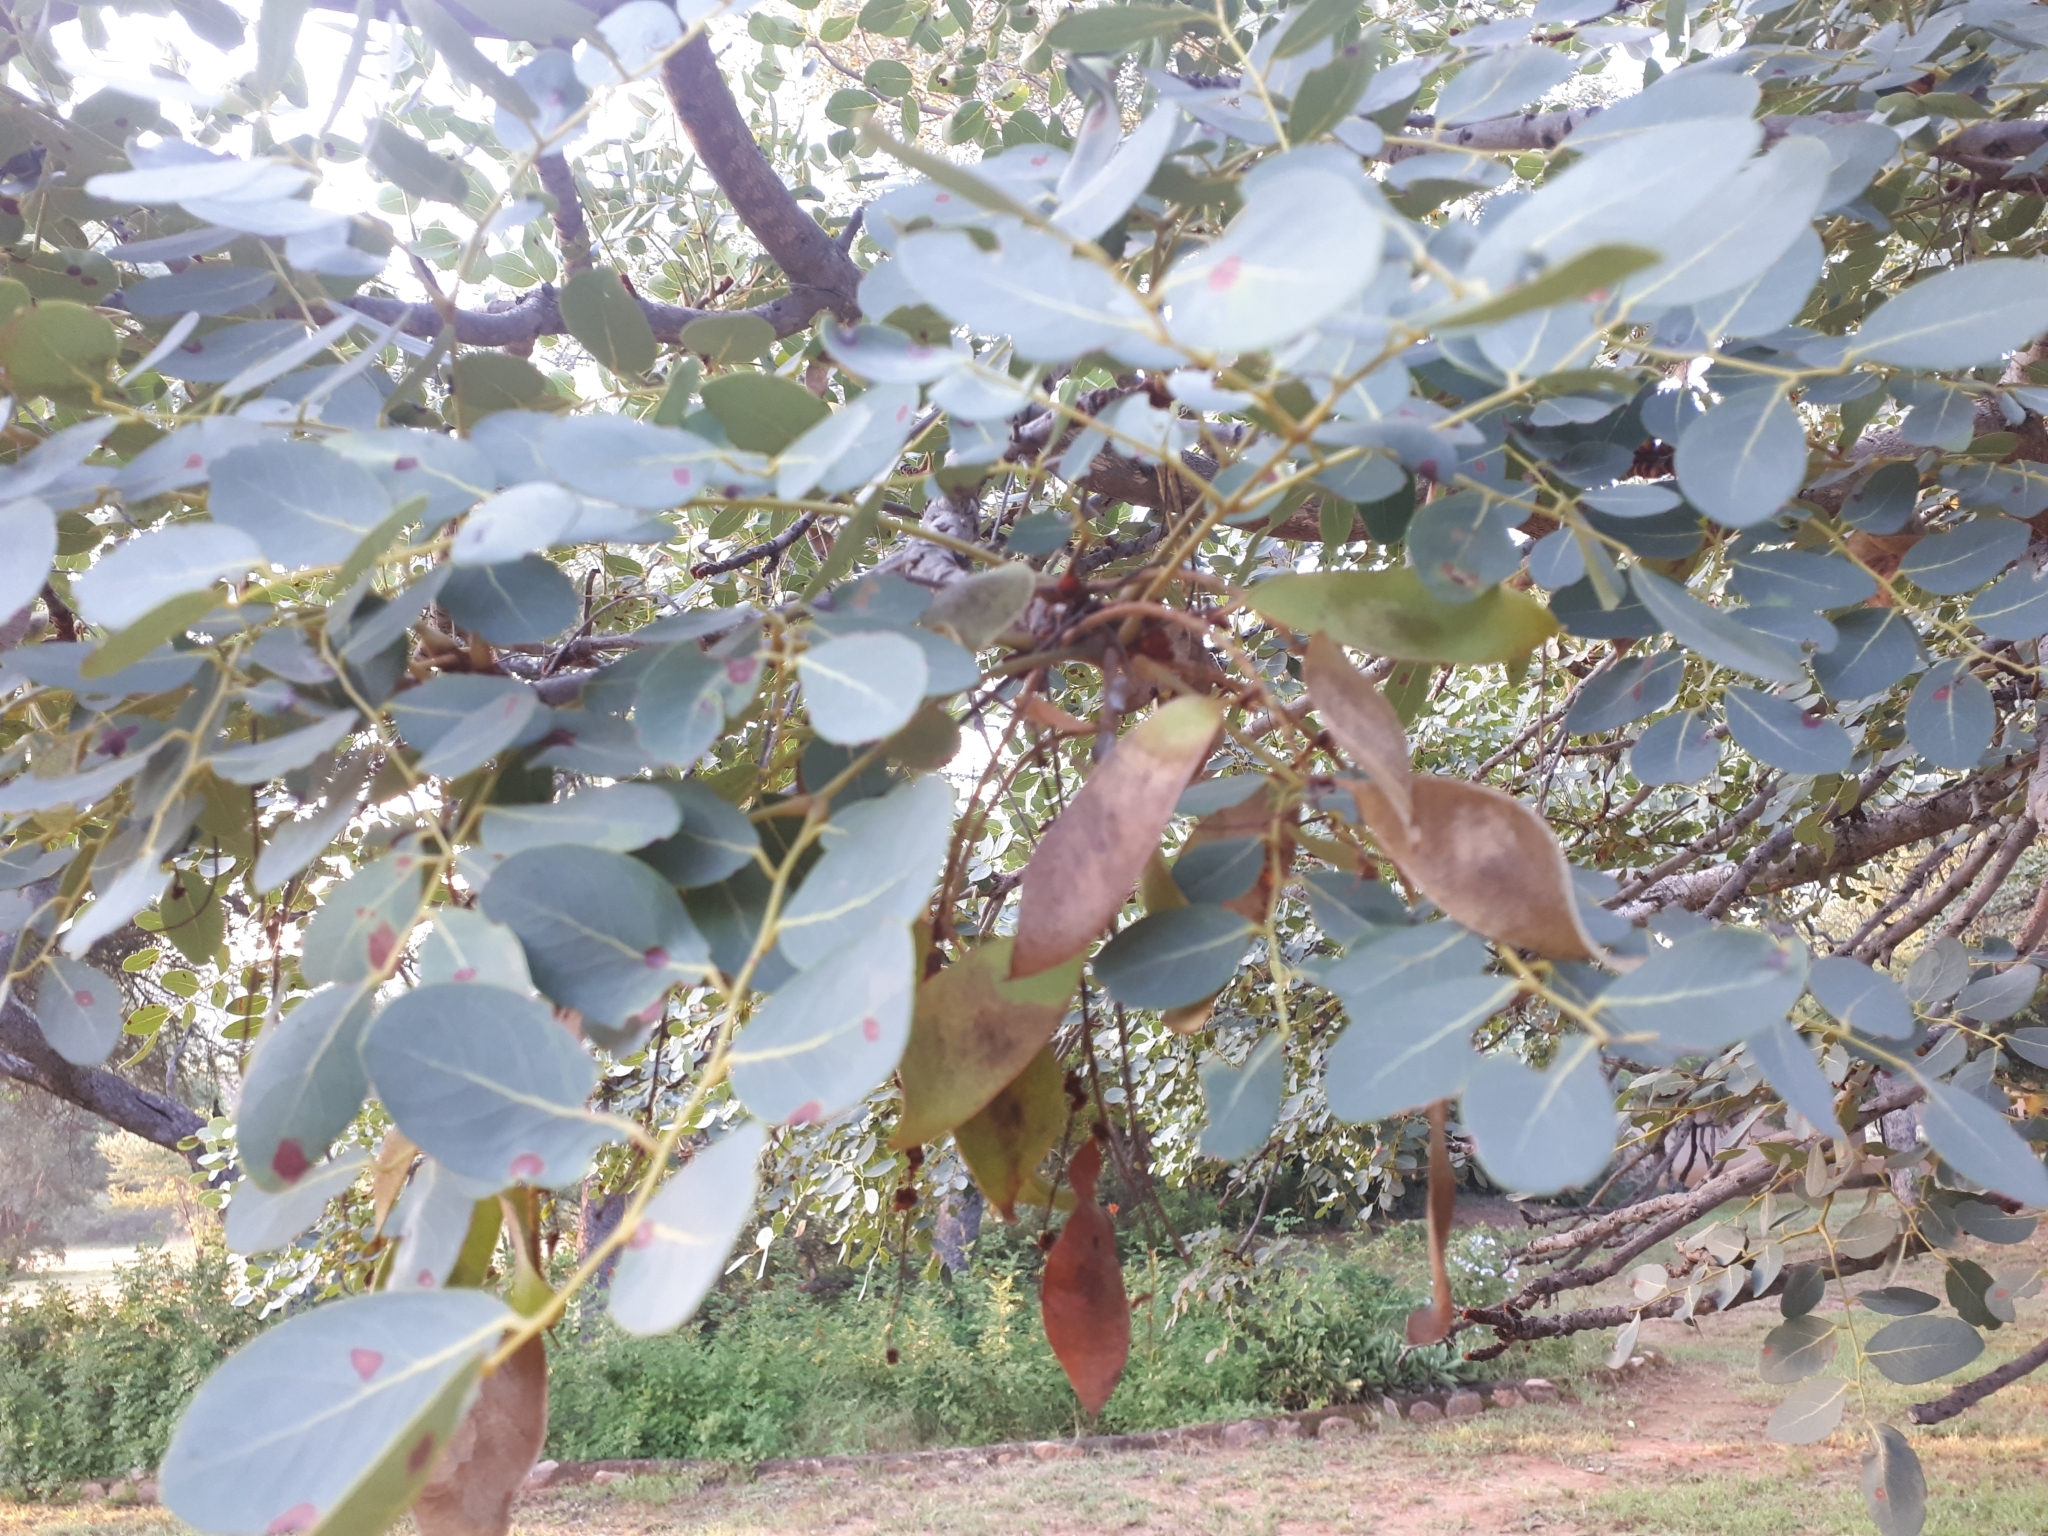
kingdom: Plantae
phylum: Tracheophyta
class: Magnoliopsida
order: Fabales
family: Fabaceae
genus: Burkea
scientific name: Burkea africana
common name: Mkalati tree
